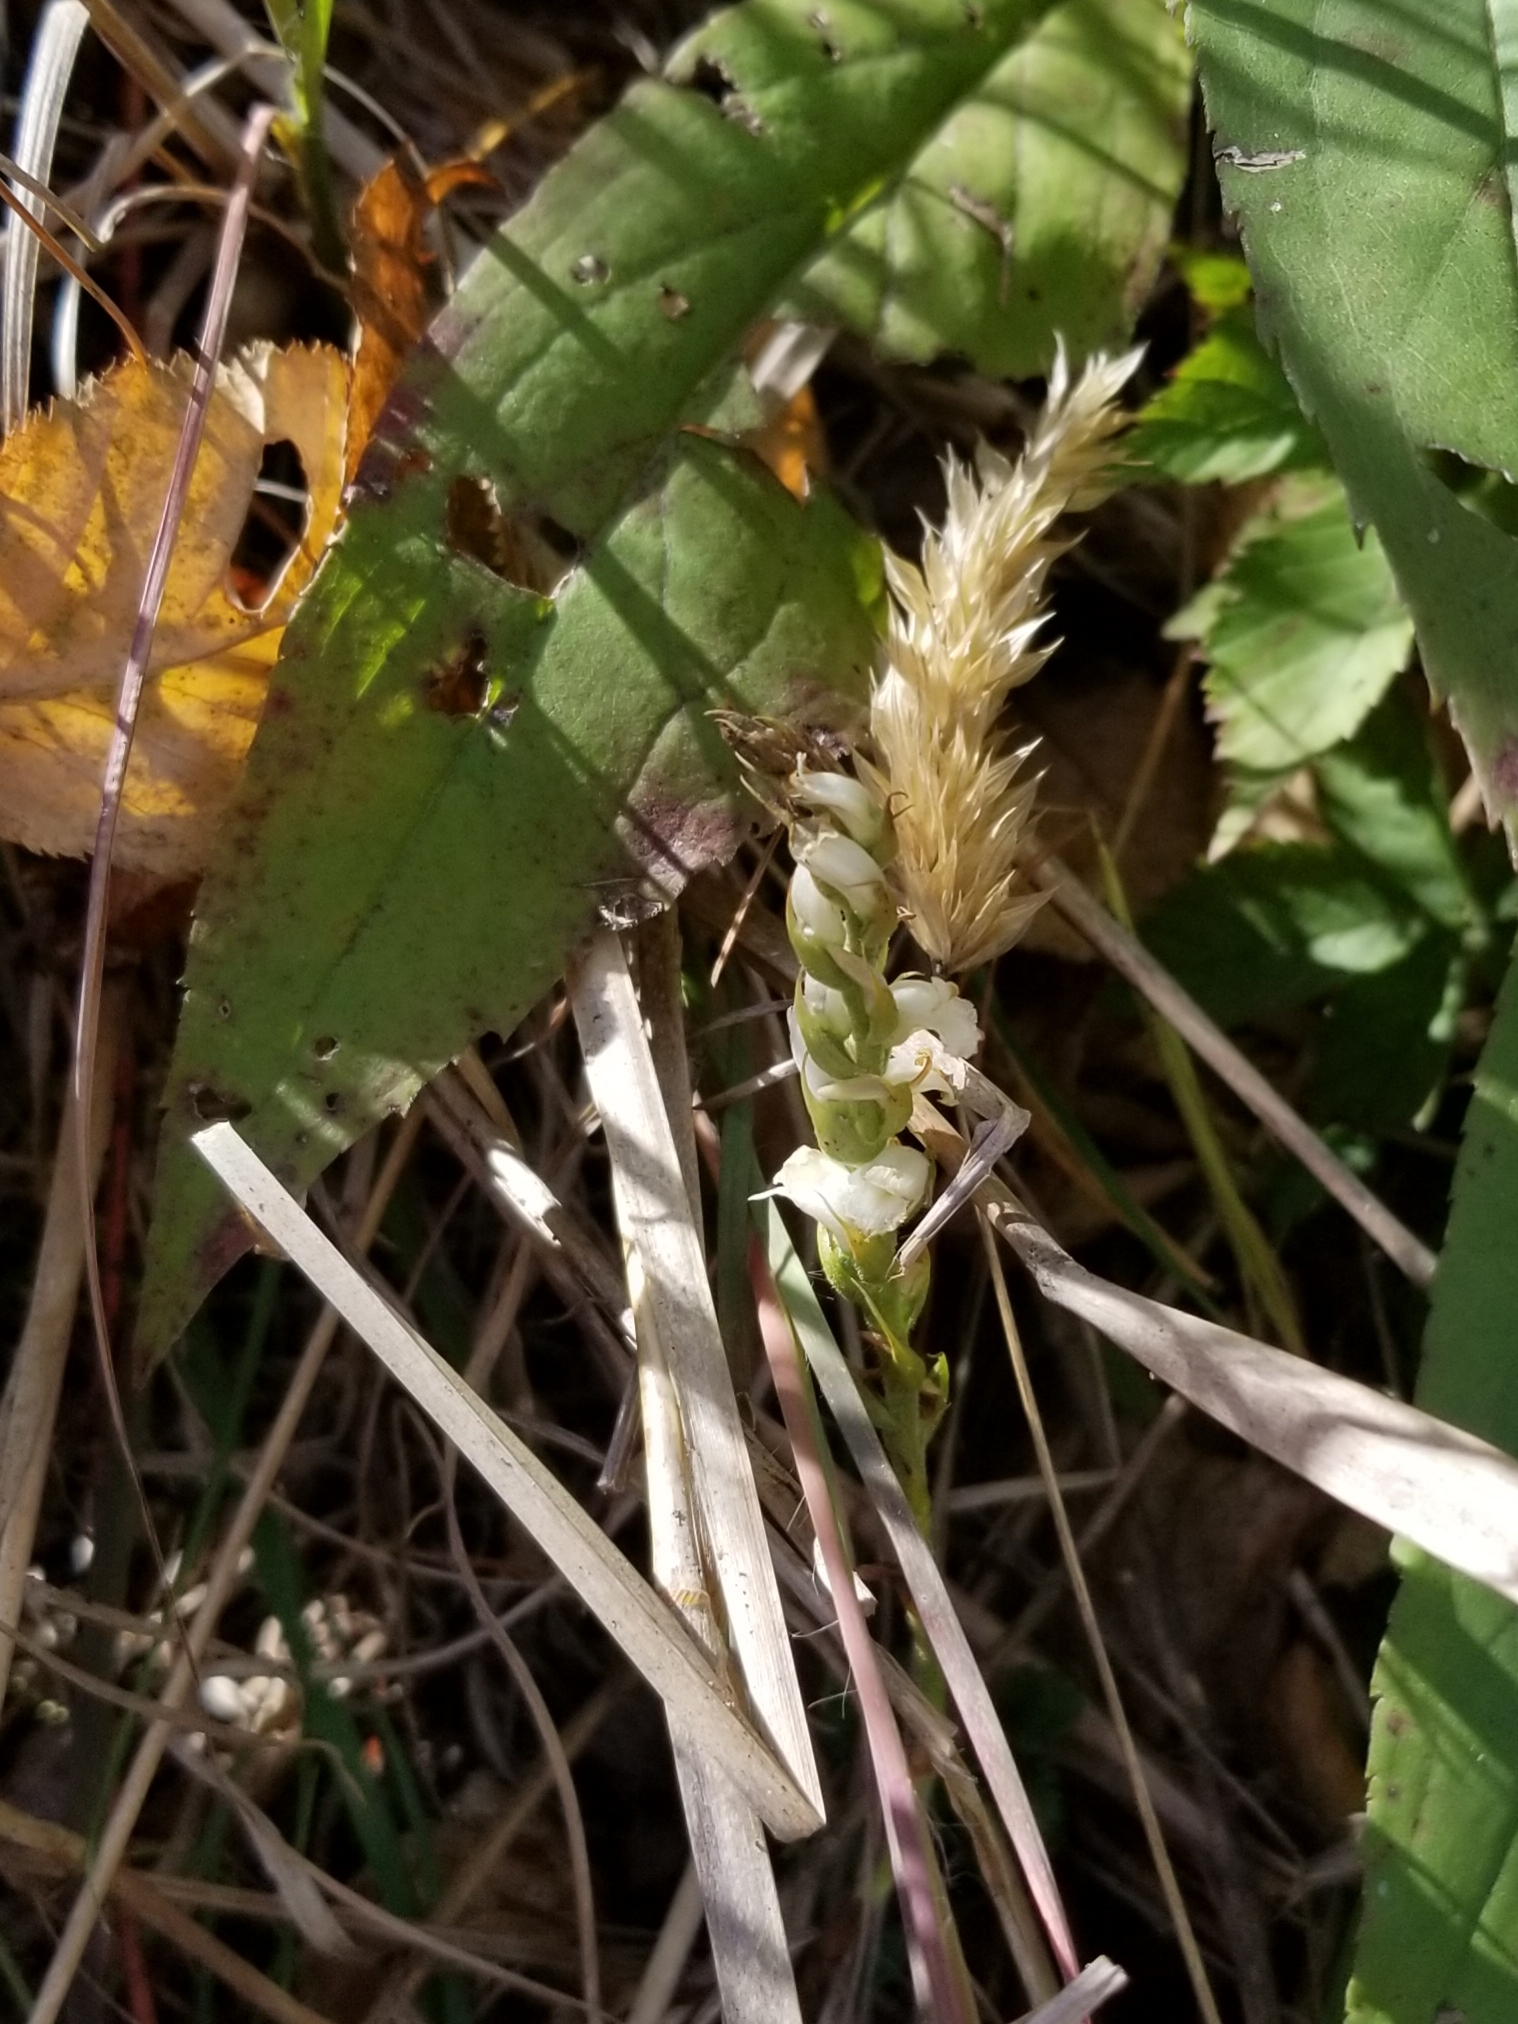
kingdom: Plantae
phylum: Tracheophyta
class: Liliopsida
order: Asparagales
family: Orchidaceae
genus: Spiranthes
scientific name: Spiranthes ochroleuca
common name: Yellow ladies'-tresses
